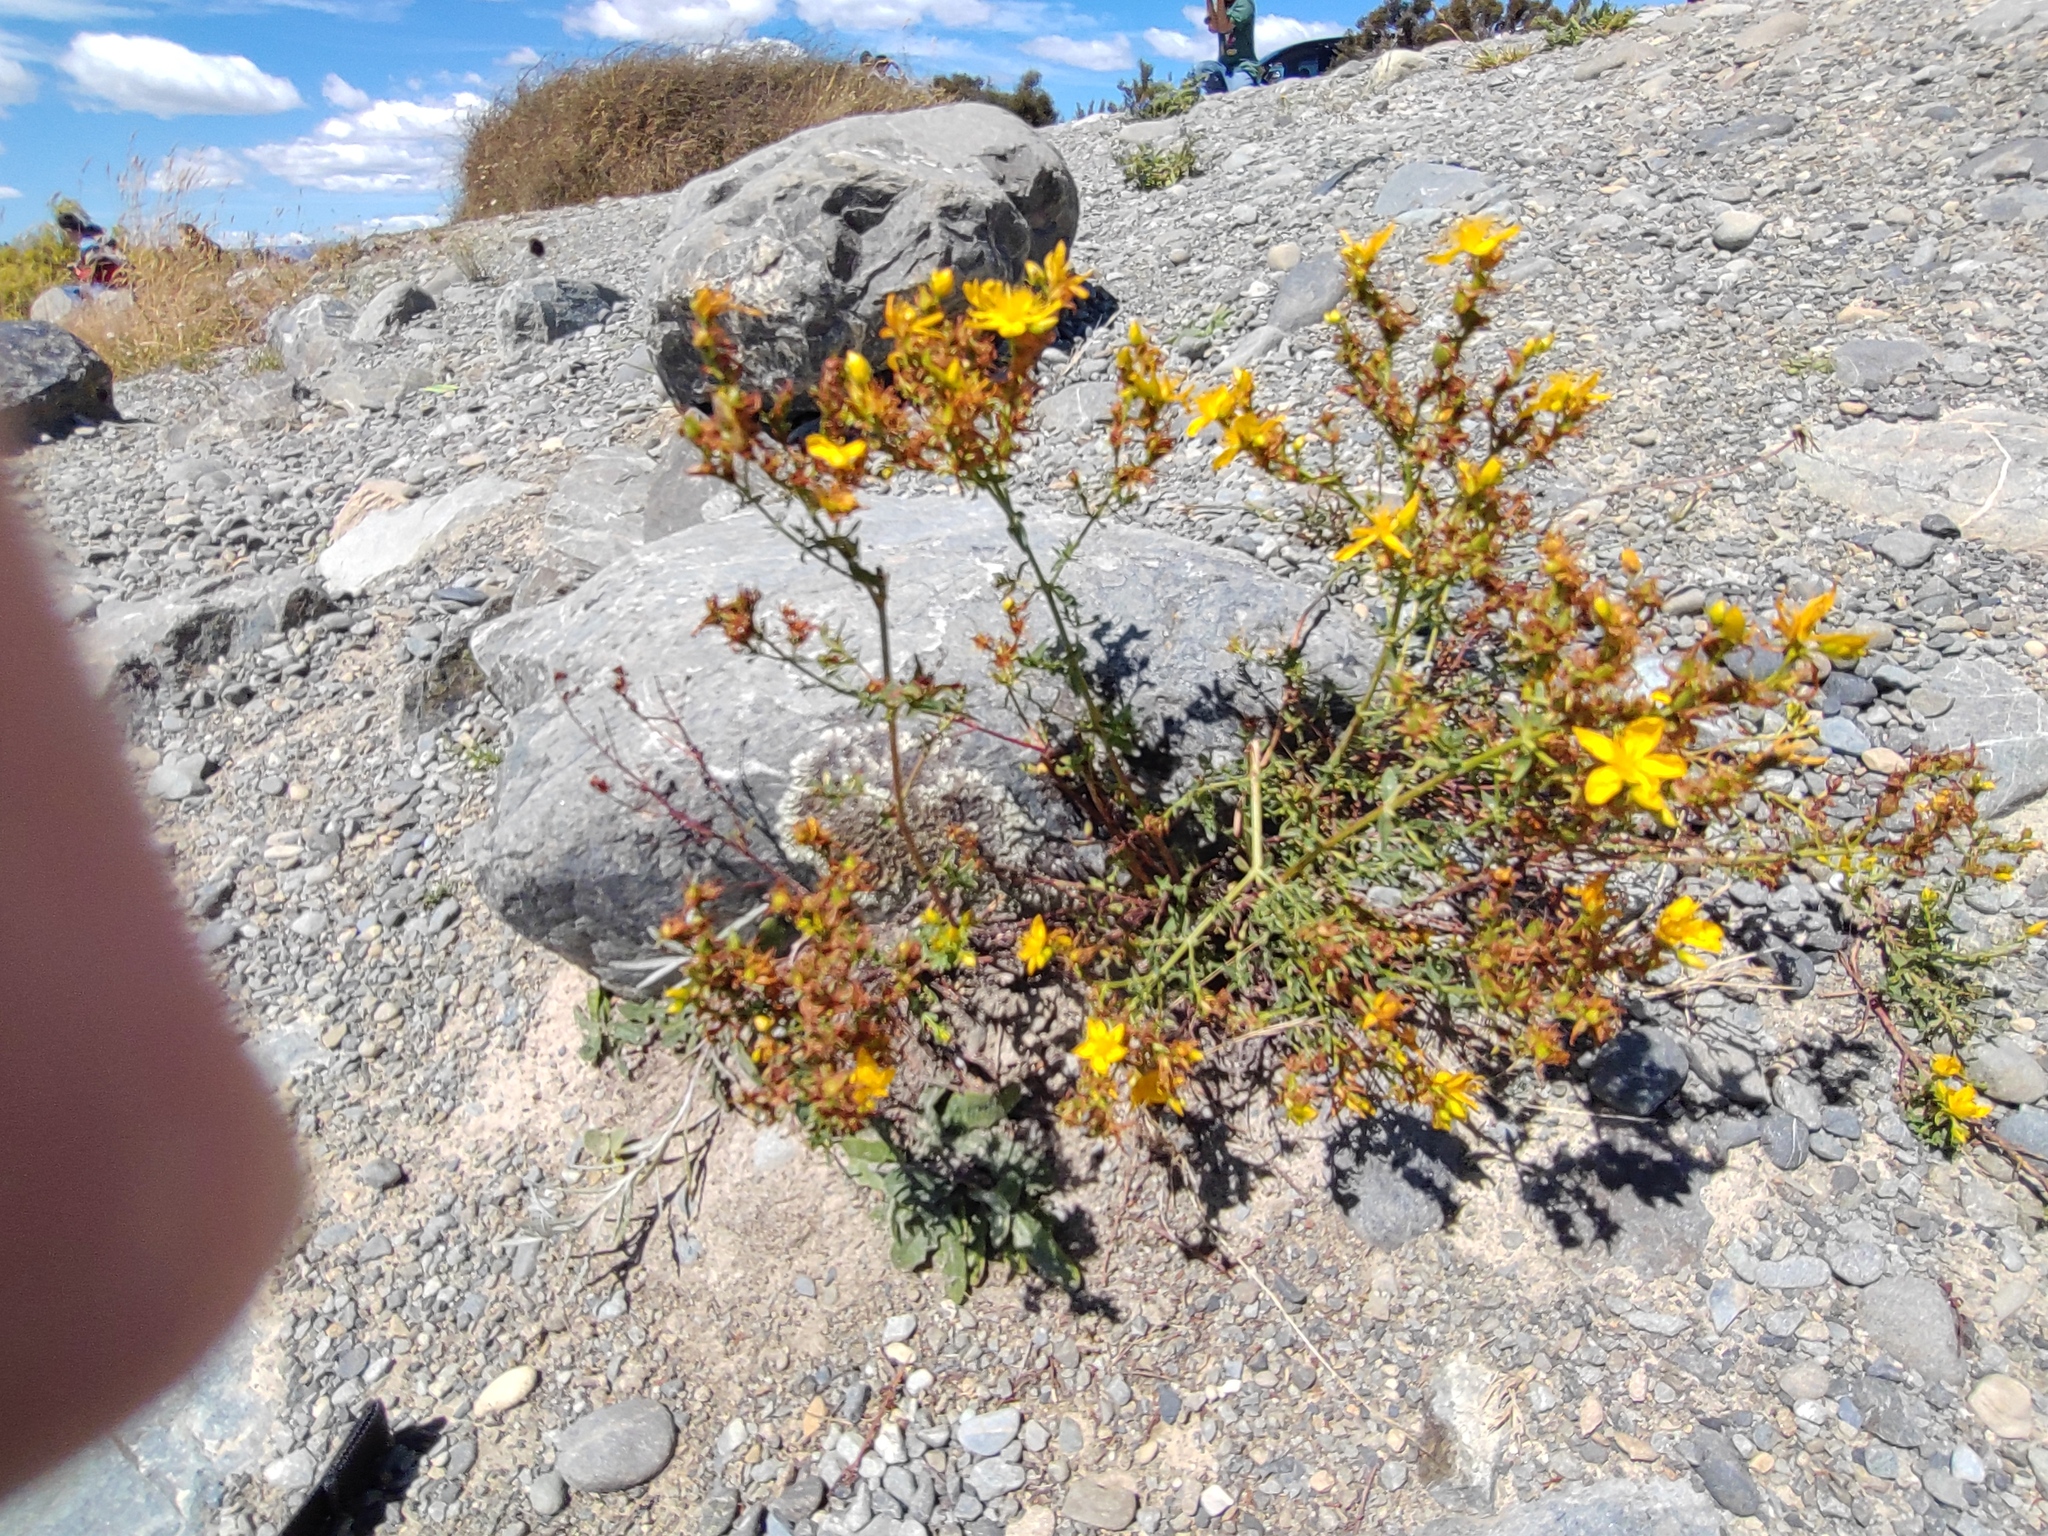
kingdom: Plantae
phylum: Tracheophyta
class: Magnoliopsida
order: Malpighiales
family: Hypericaceae
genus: Hypericum
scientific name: Hypericum perforatum
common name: Common st. johnswort
